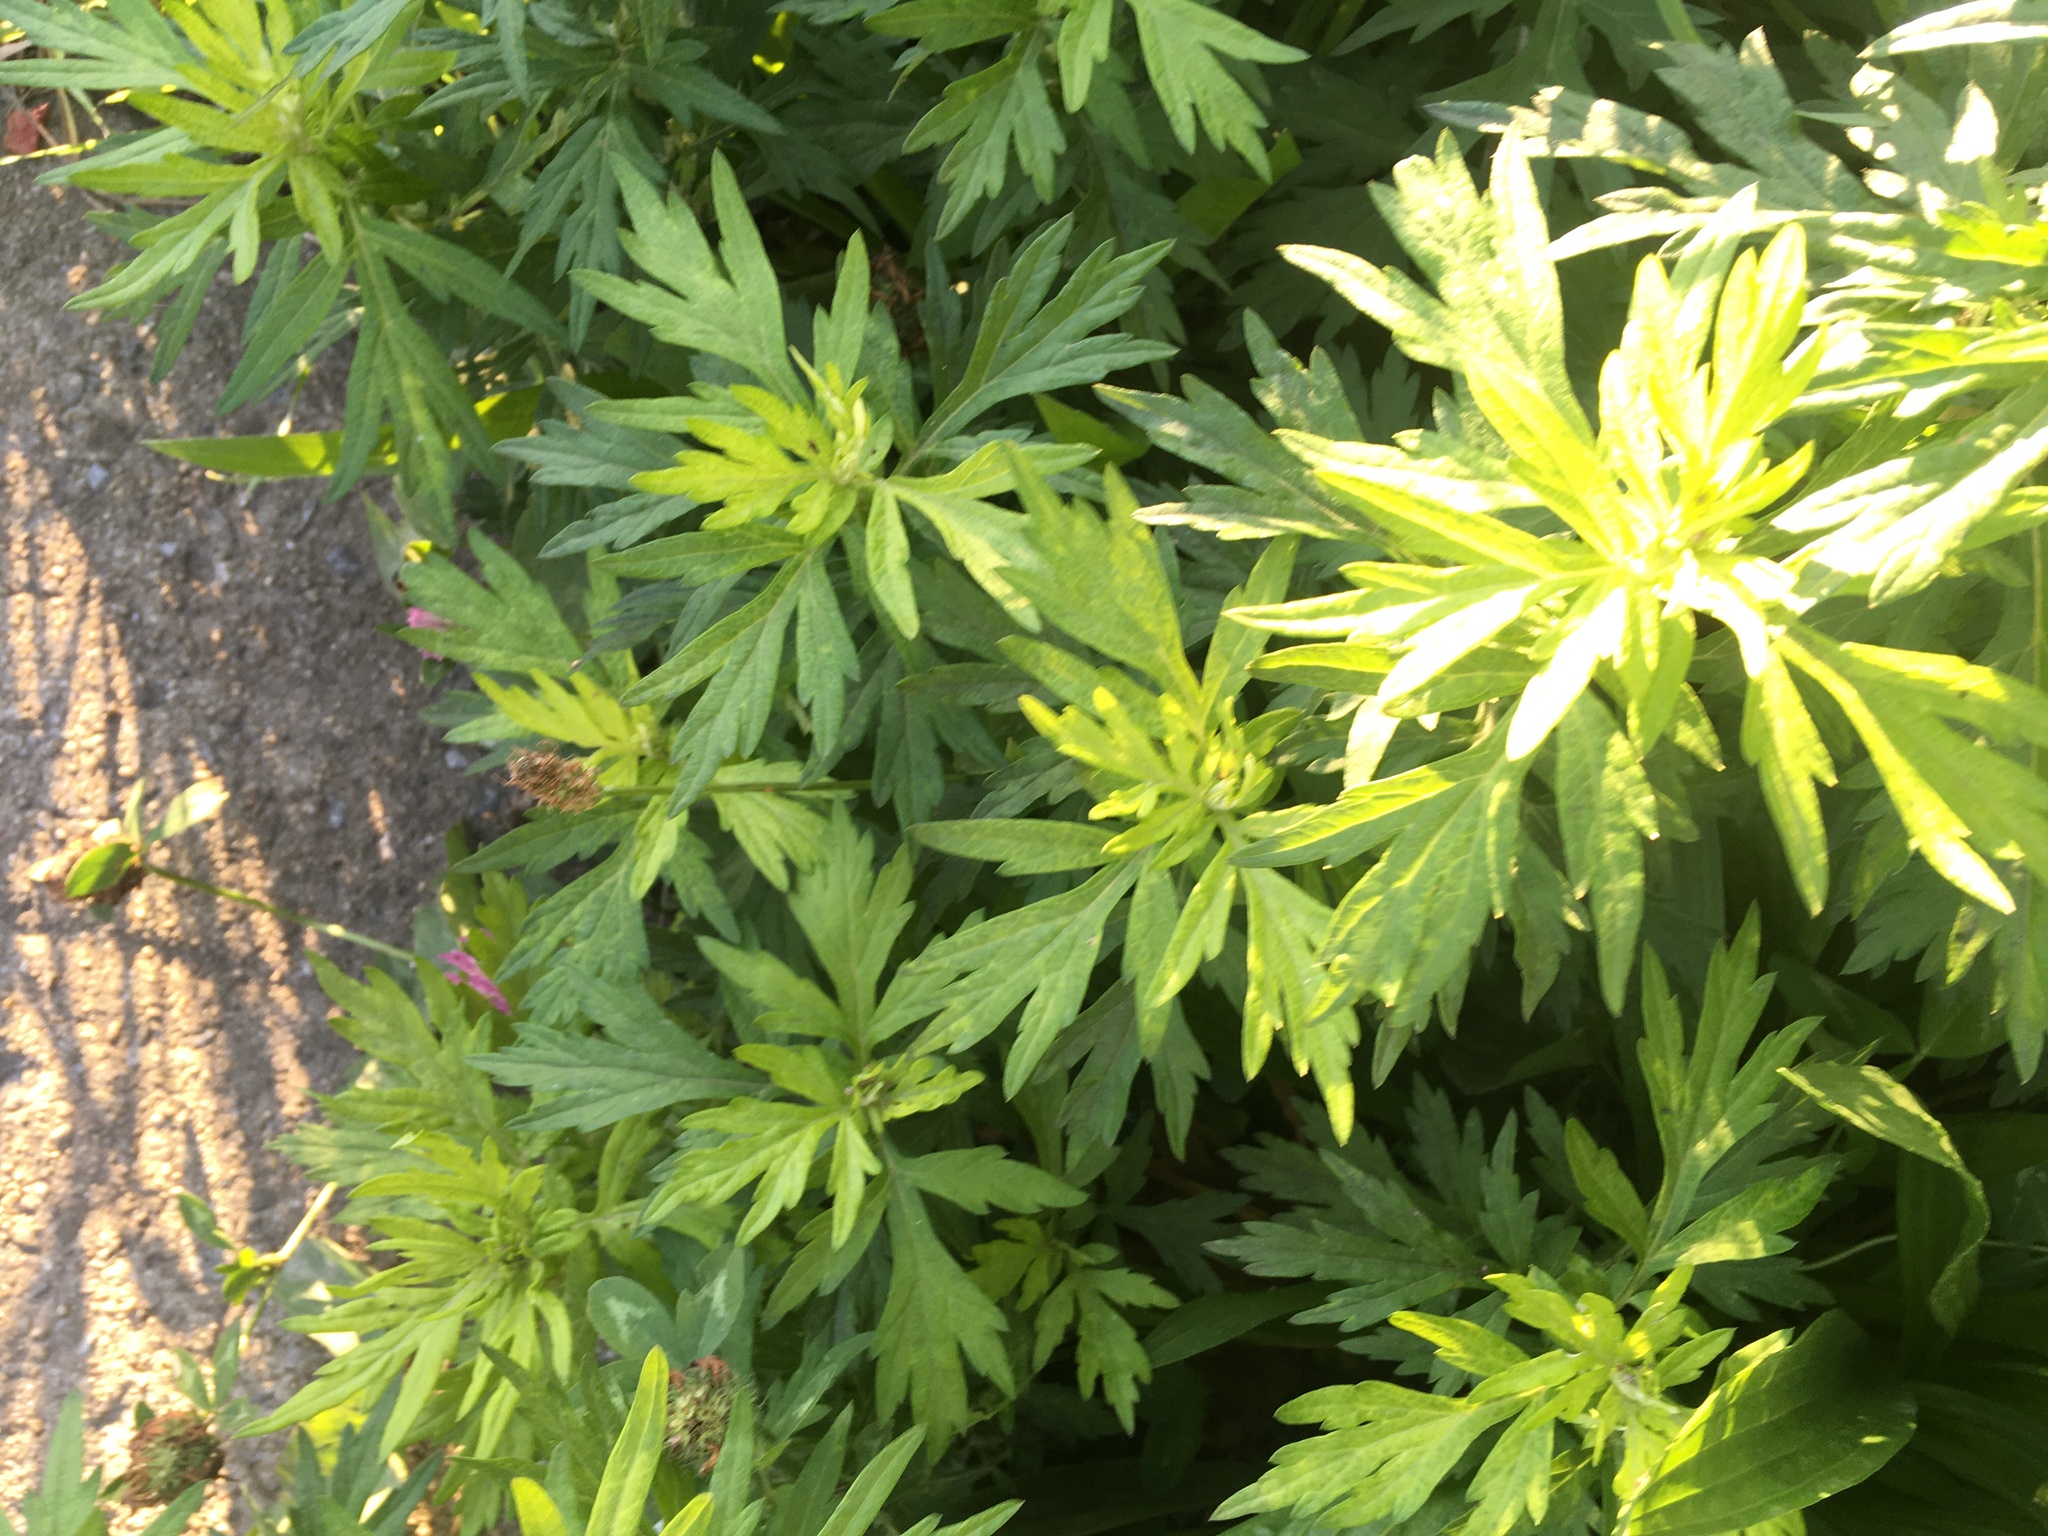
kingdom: Plantae
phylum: Tracheophyta
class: Magnoliopsida
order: Asterales
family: Asteraceae
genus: Artemisia
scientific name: Artemisia vulgaris
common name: Mugwort
